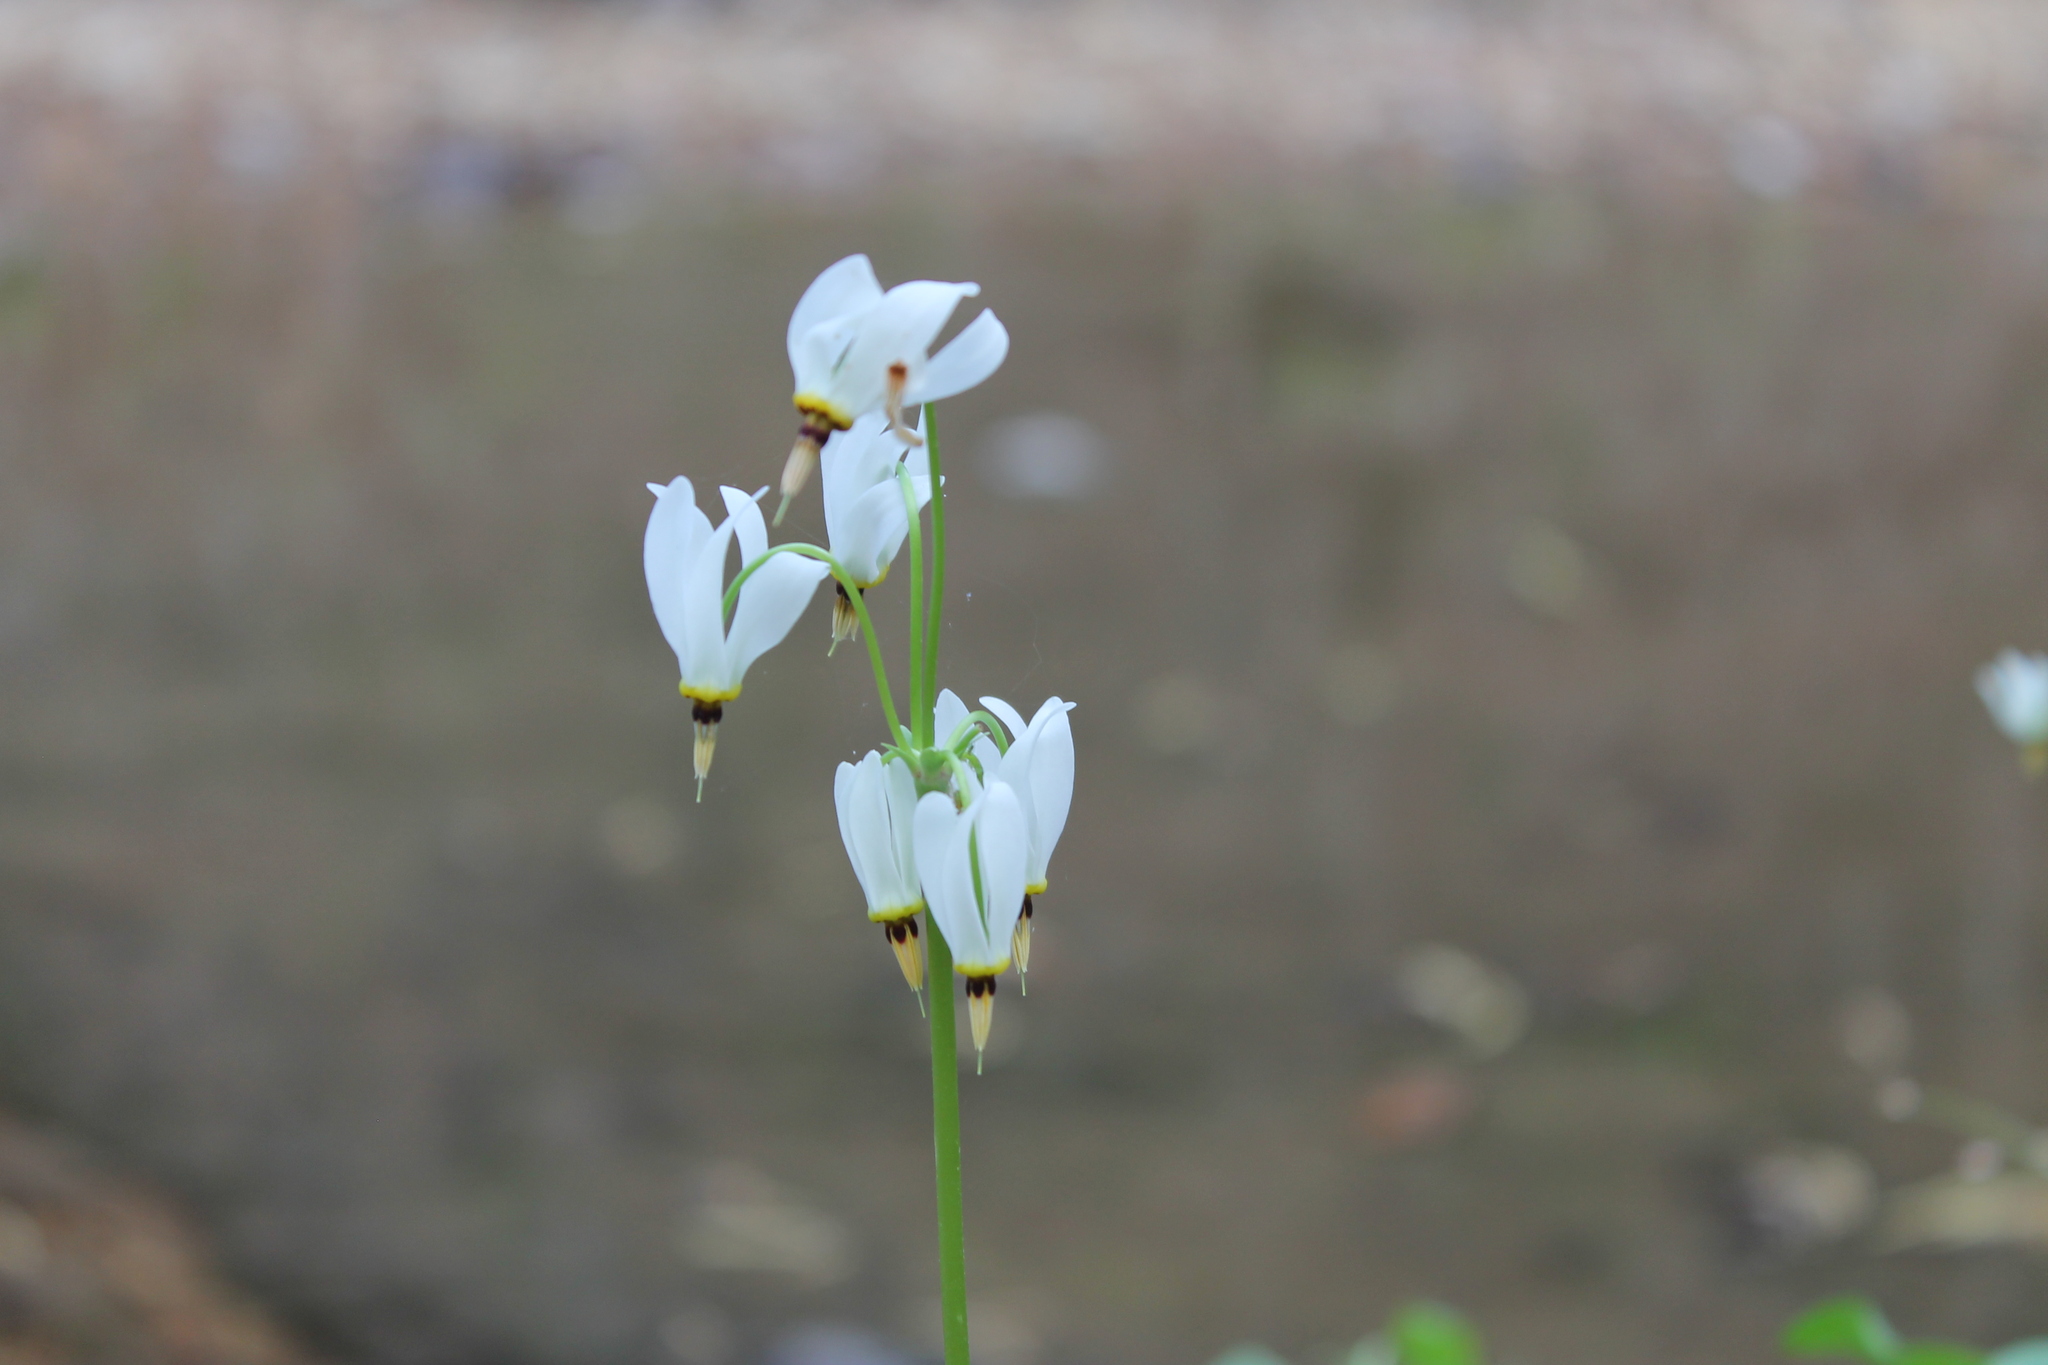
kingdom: Plantae
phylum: Tracheophyta
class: Magnoliopsida
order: Ericales
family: Primulaceae
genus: Dodecatheon
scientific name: Dodecatheon meadia
